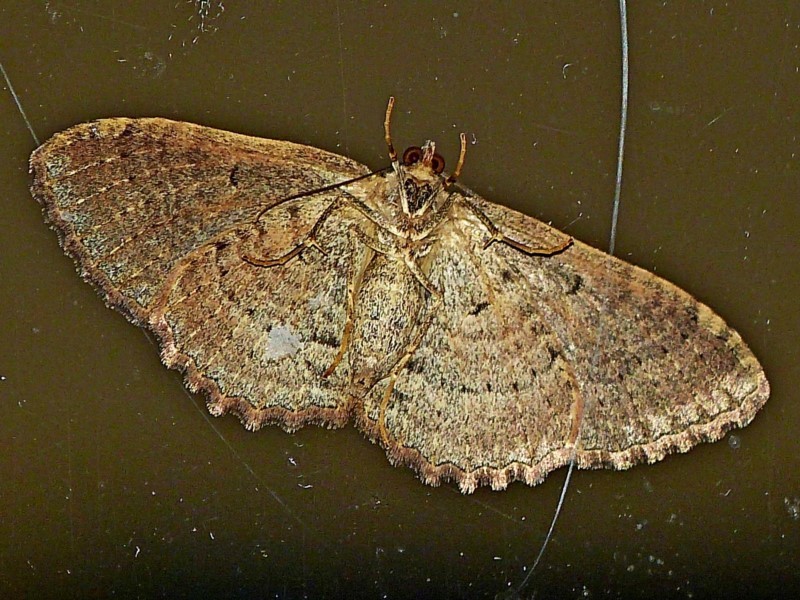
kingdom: Animalia
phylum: Arthropoda
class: Insecta
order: Lepidoptera
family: Geometridae
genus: Visiana
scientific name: Visiana brujata
